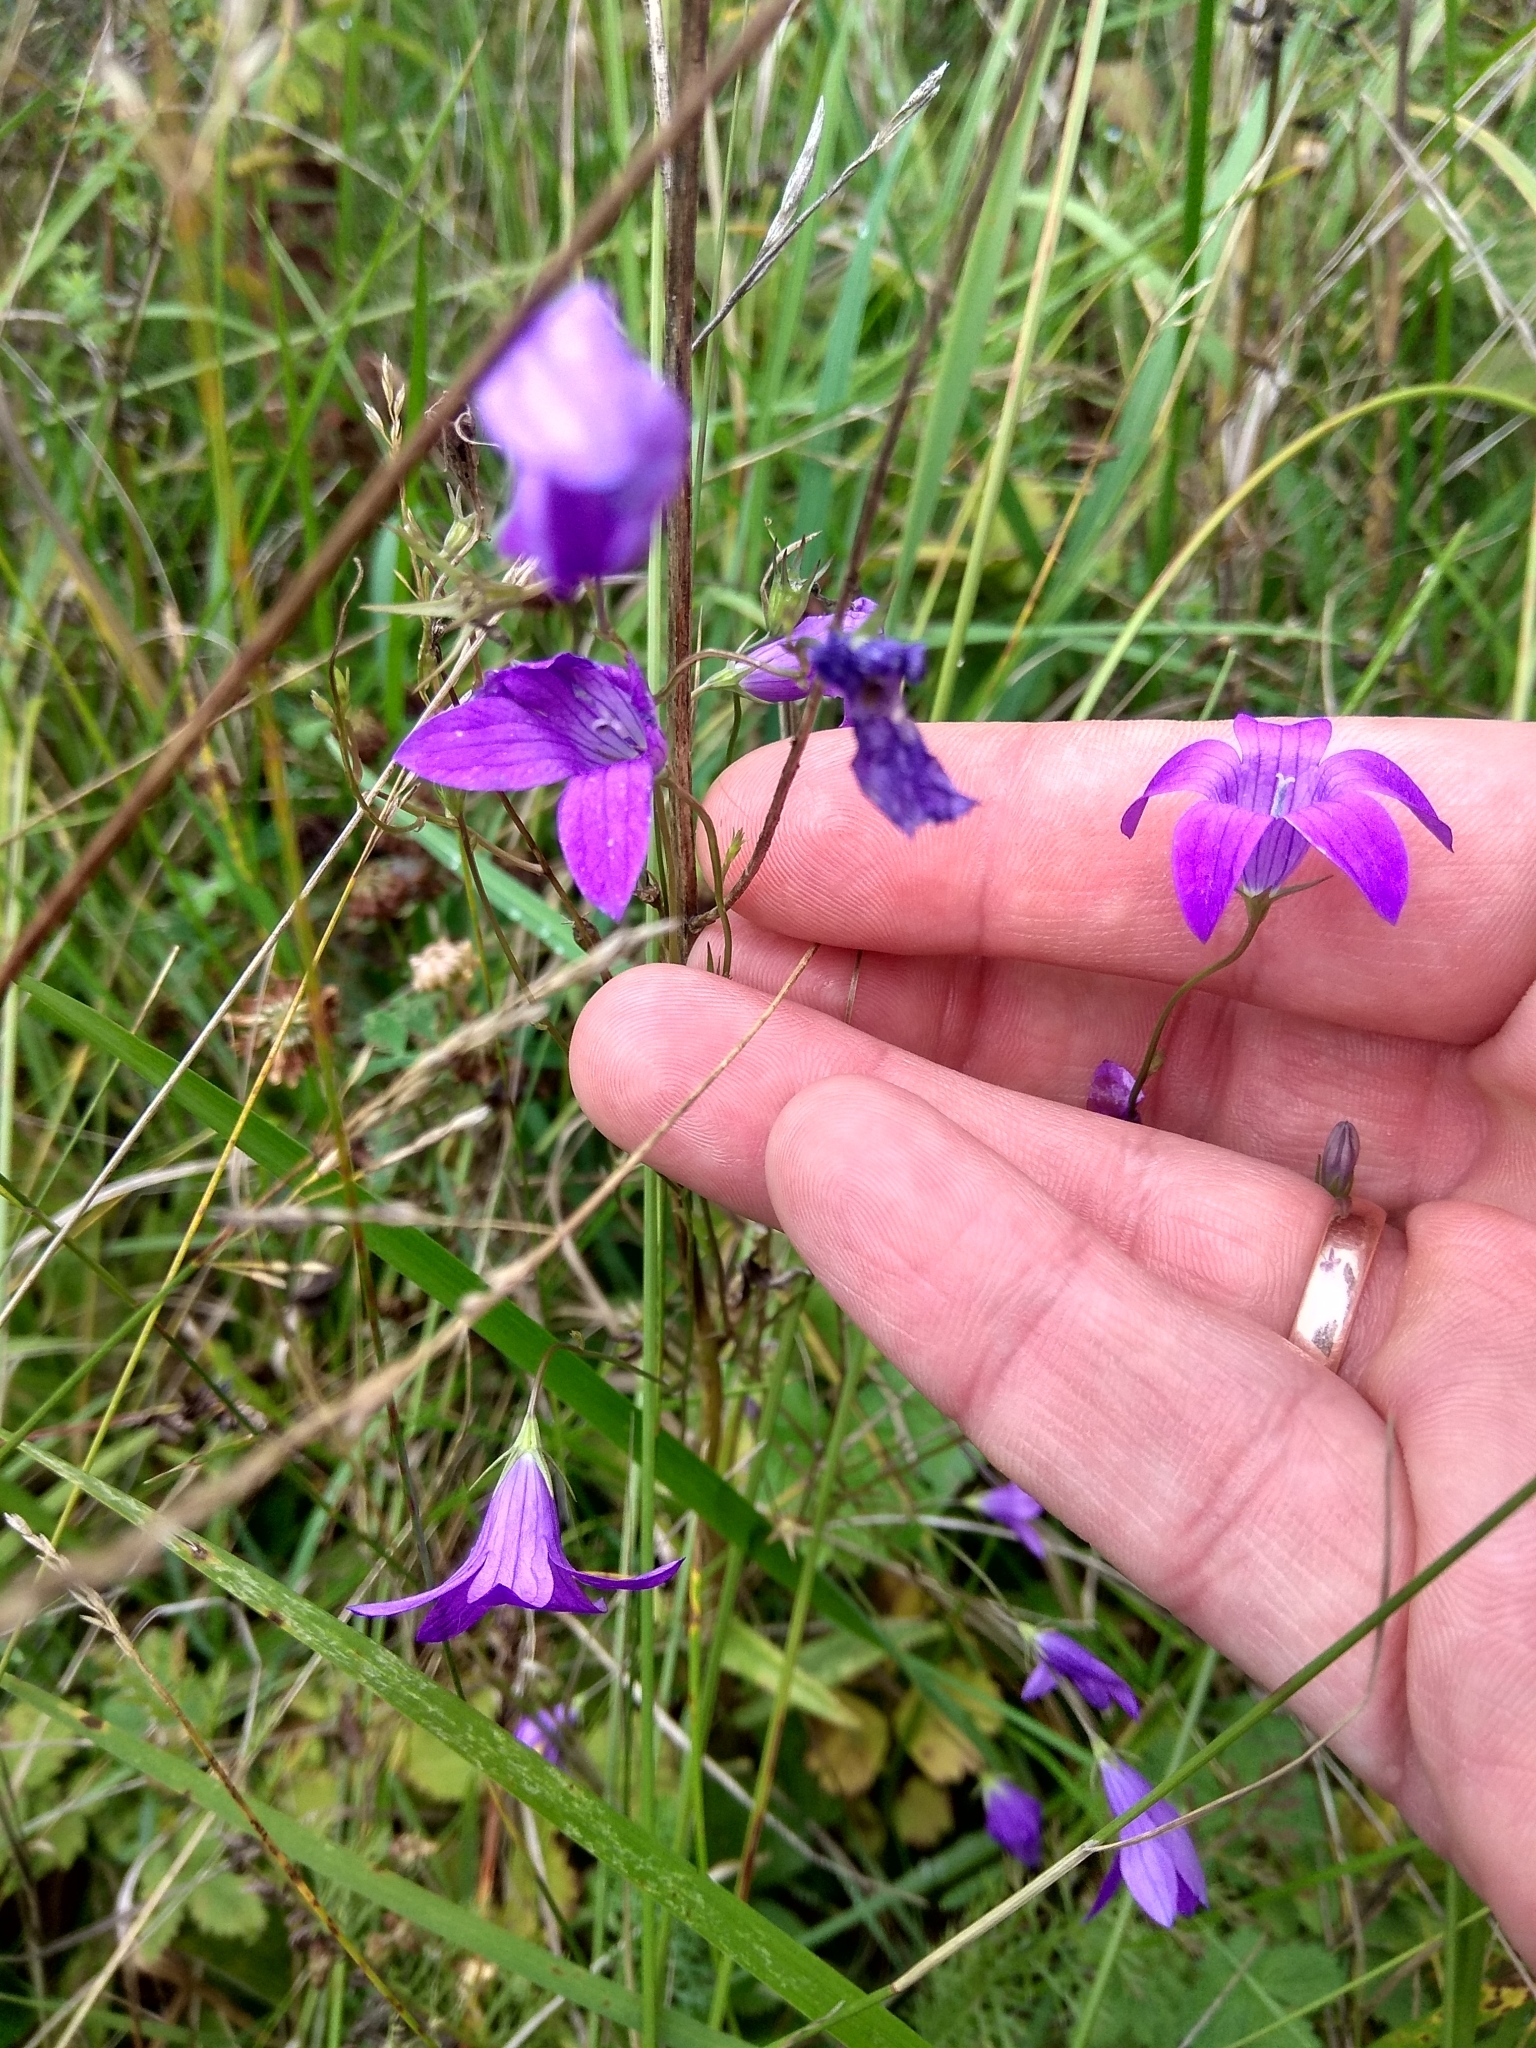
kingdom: Plantae
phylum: Tracheophyta
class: Magnoliopsida
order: Asterales
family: Campanulaceae
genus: Campanula
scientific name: Campanula patula
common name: Spreading bellflower
